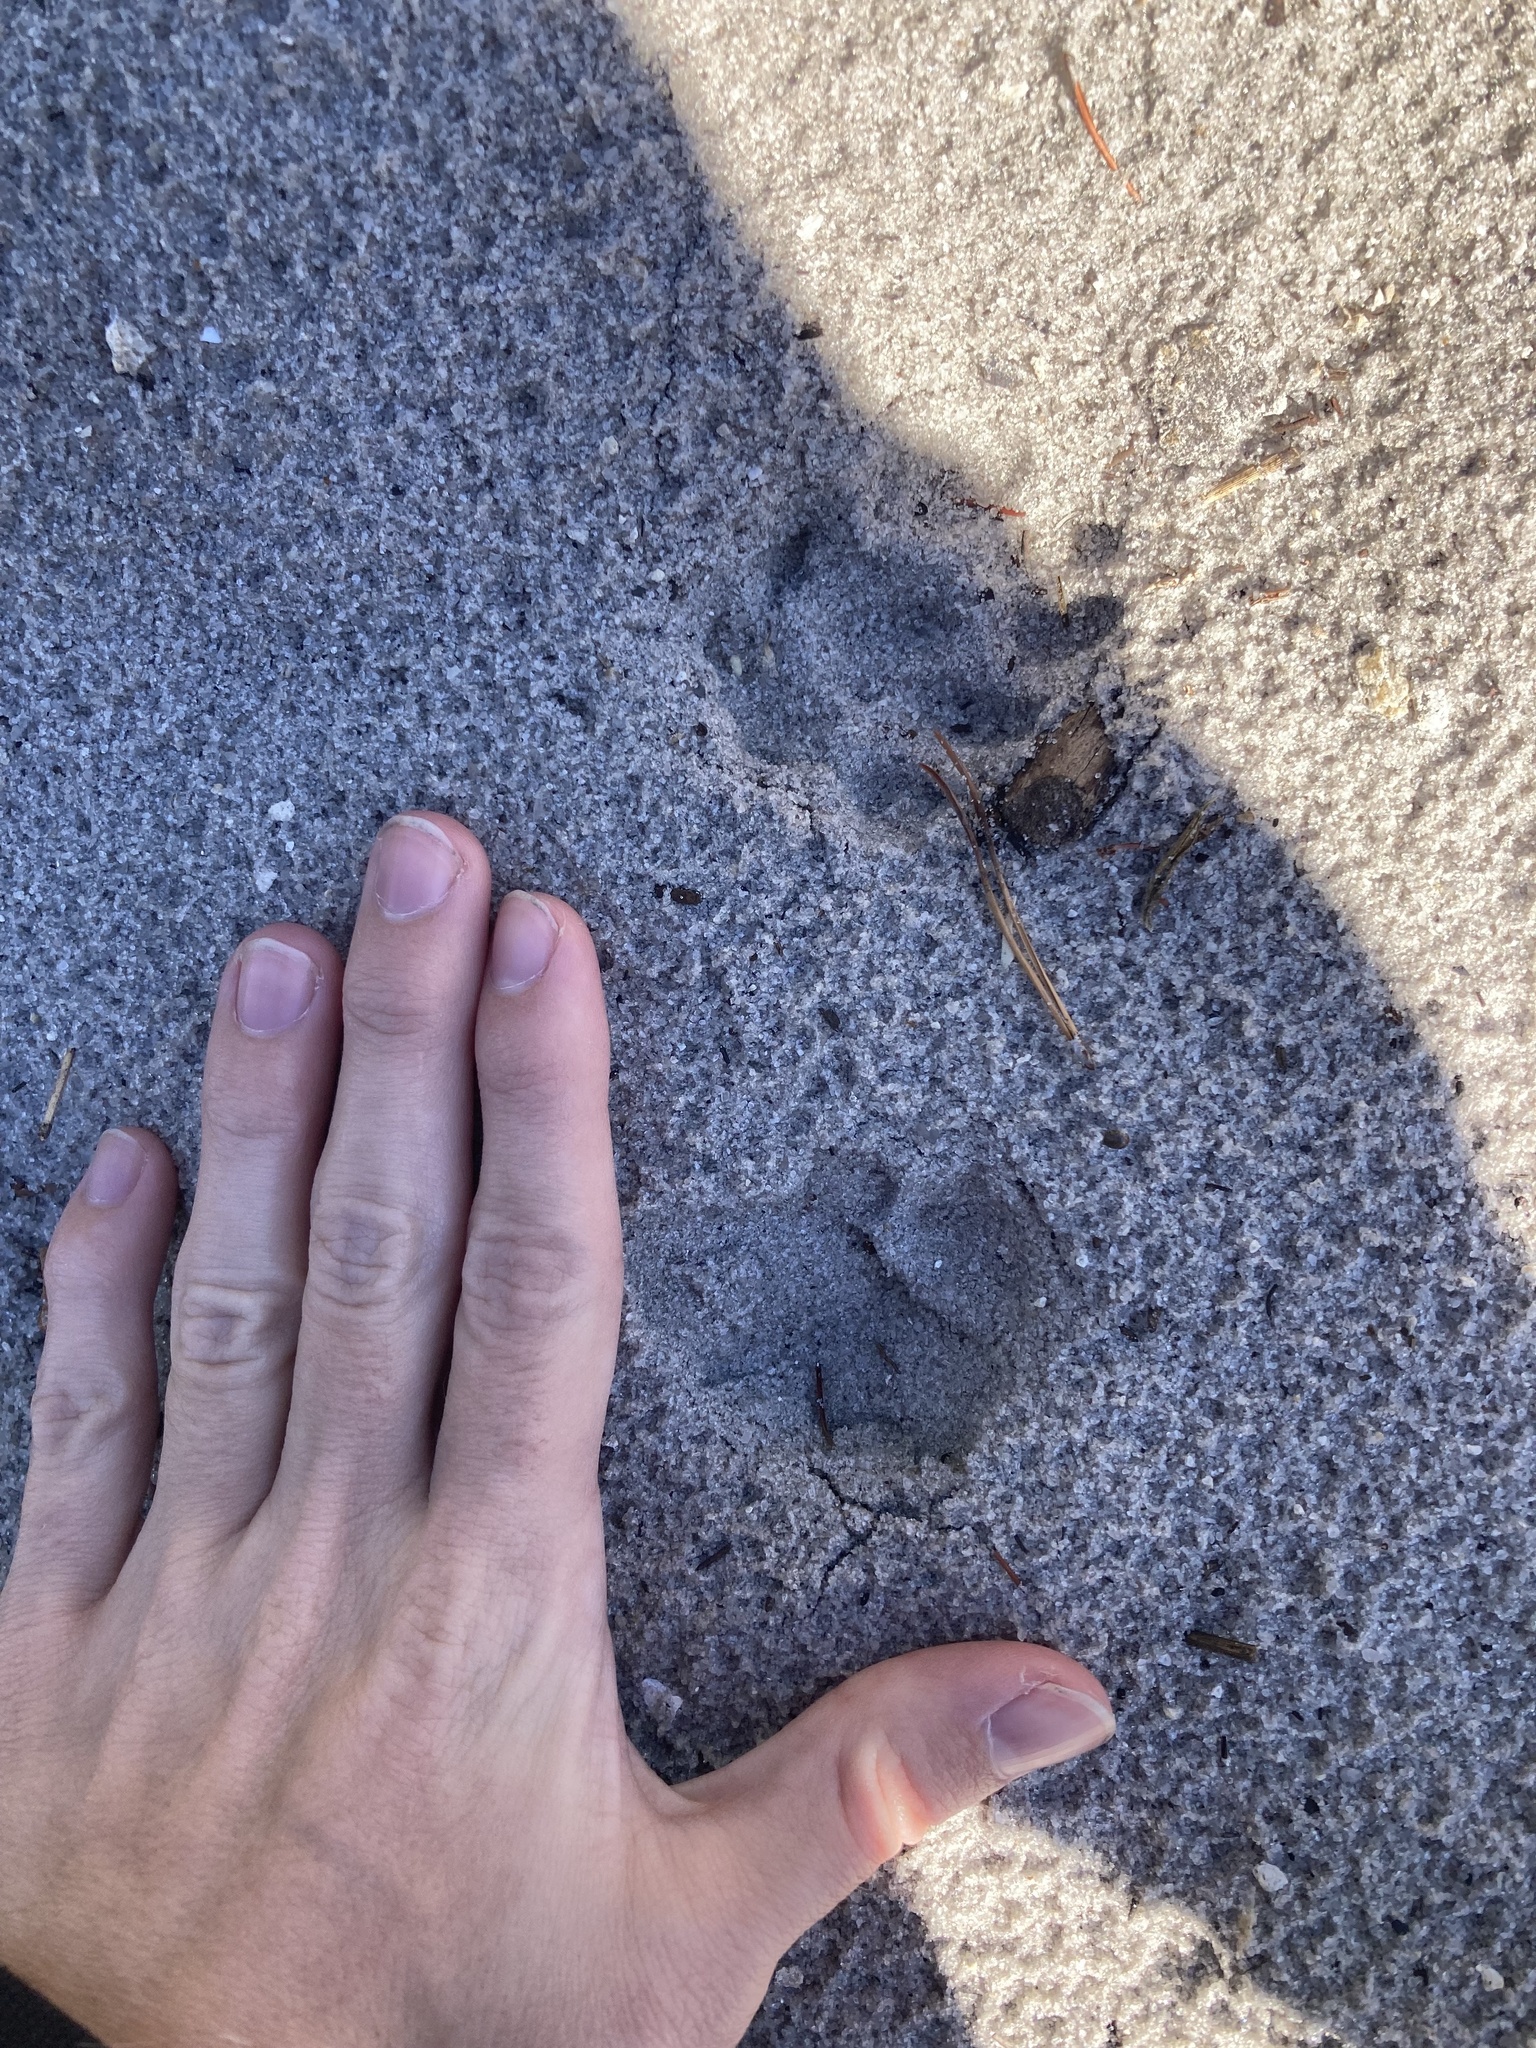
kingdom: Animalia
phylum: Chordata
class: Mammalia
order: Carnivora
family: Felidae
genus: Felis
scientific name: Felis catus
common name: Domestic cat
